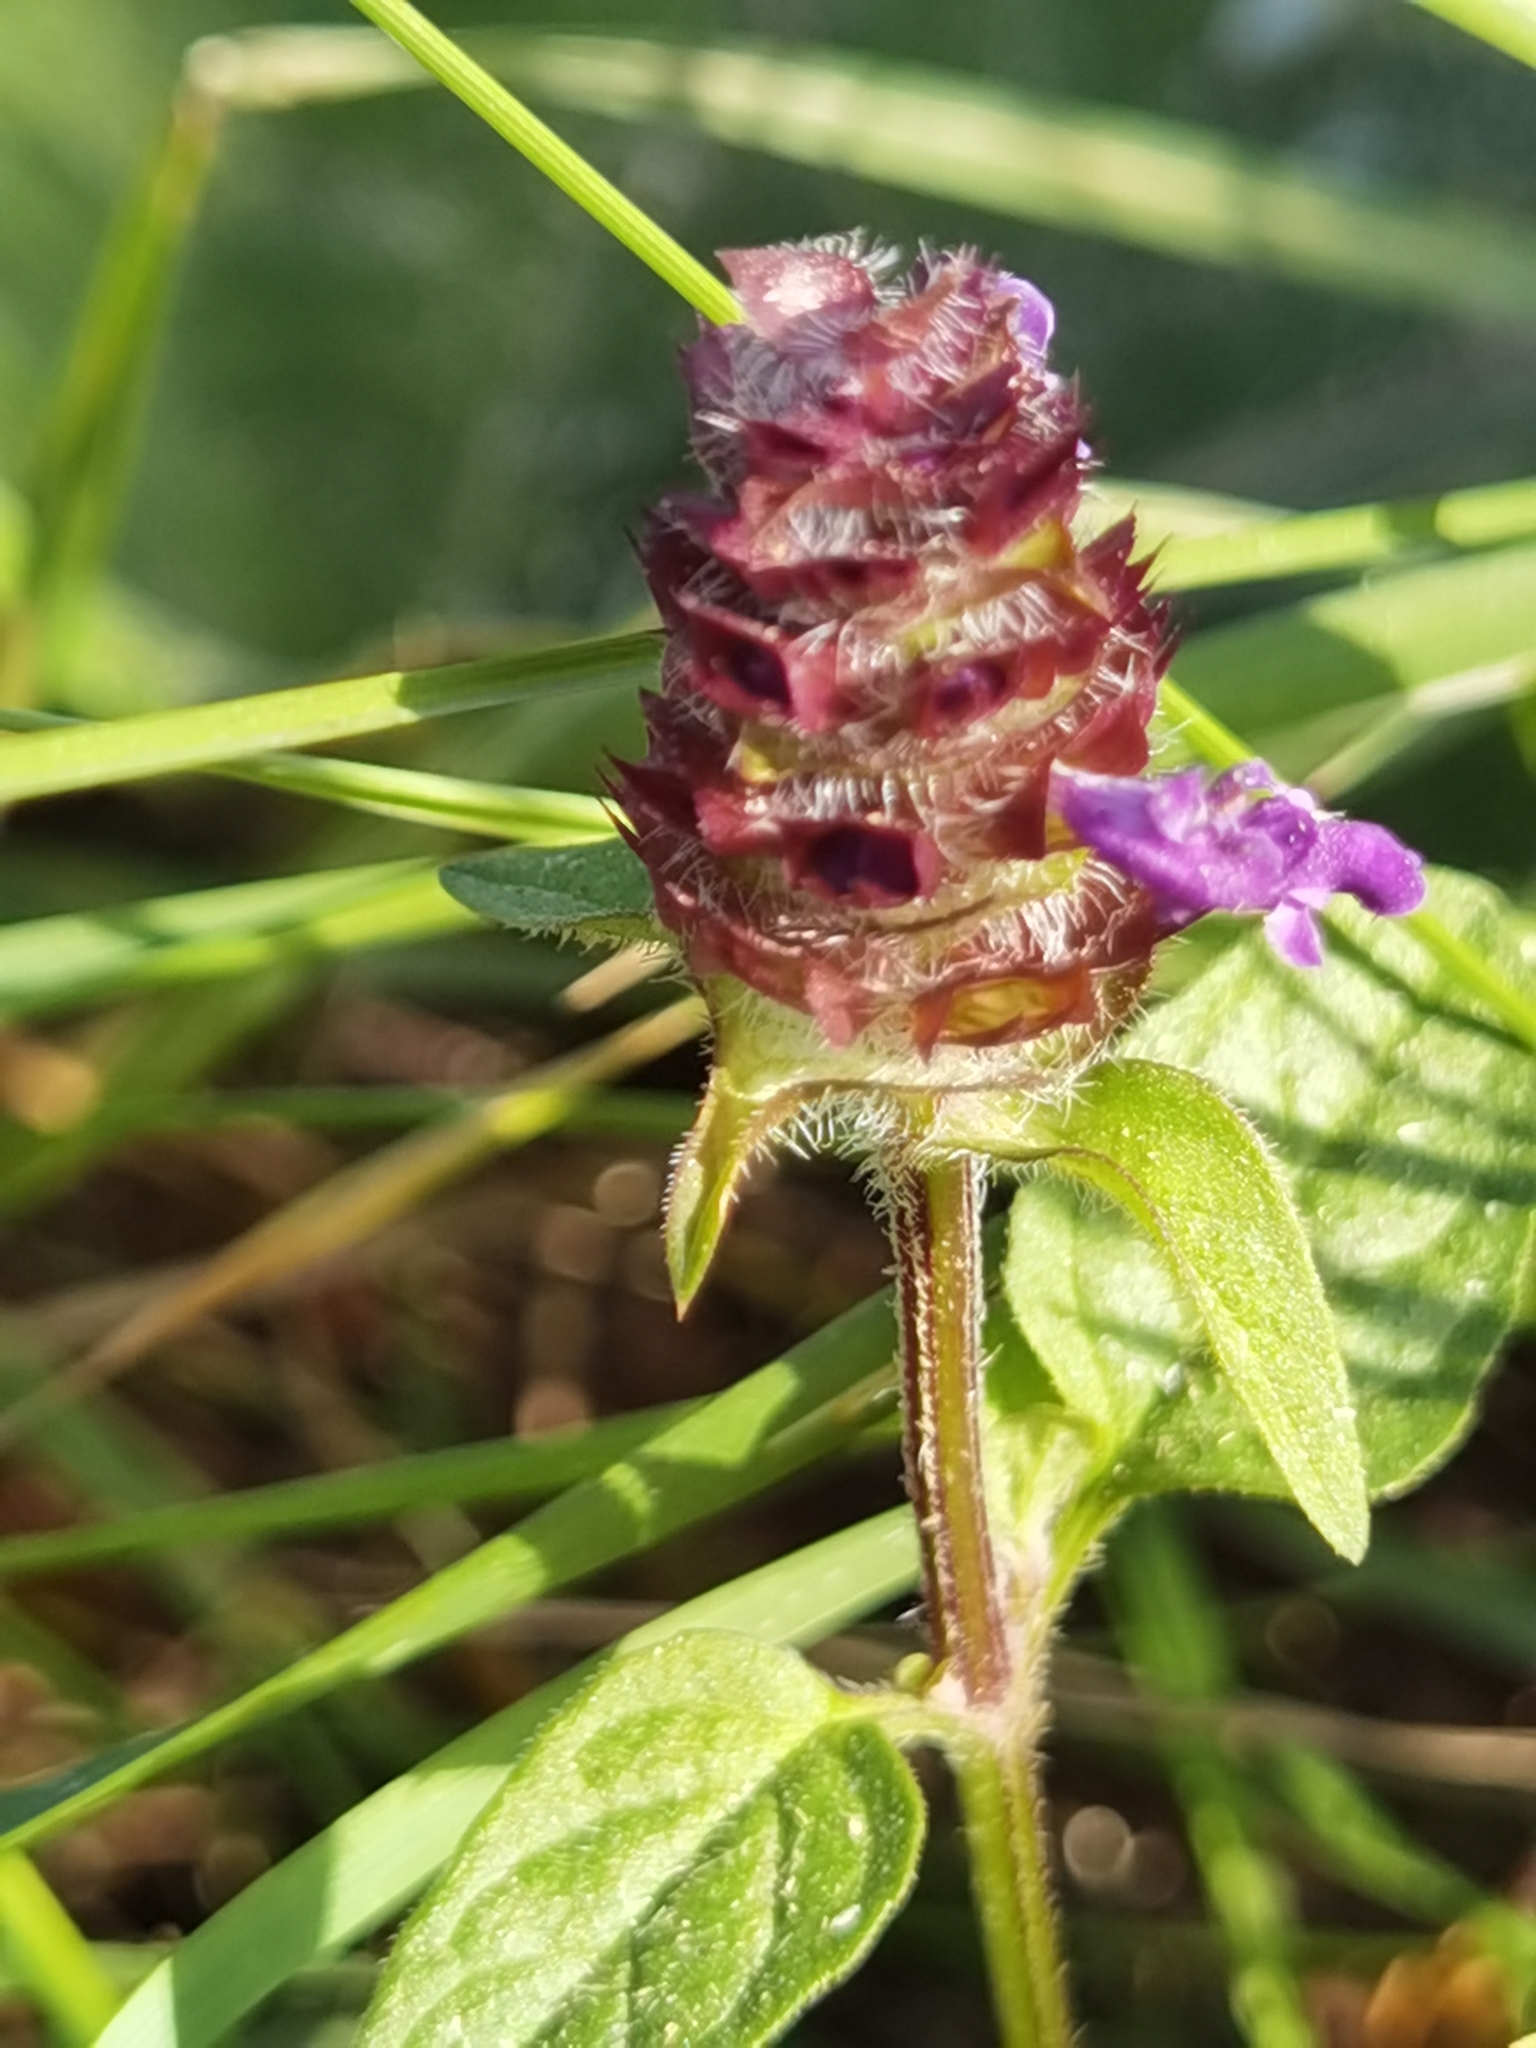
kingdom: Plantae
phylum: Tracheophyta
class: Magnoliopsida
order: Lamiales
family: Lamiaceae
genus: Prunella
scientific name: Prunella vulgaris
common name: Heal-all
